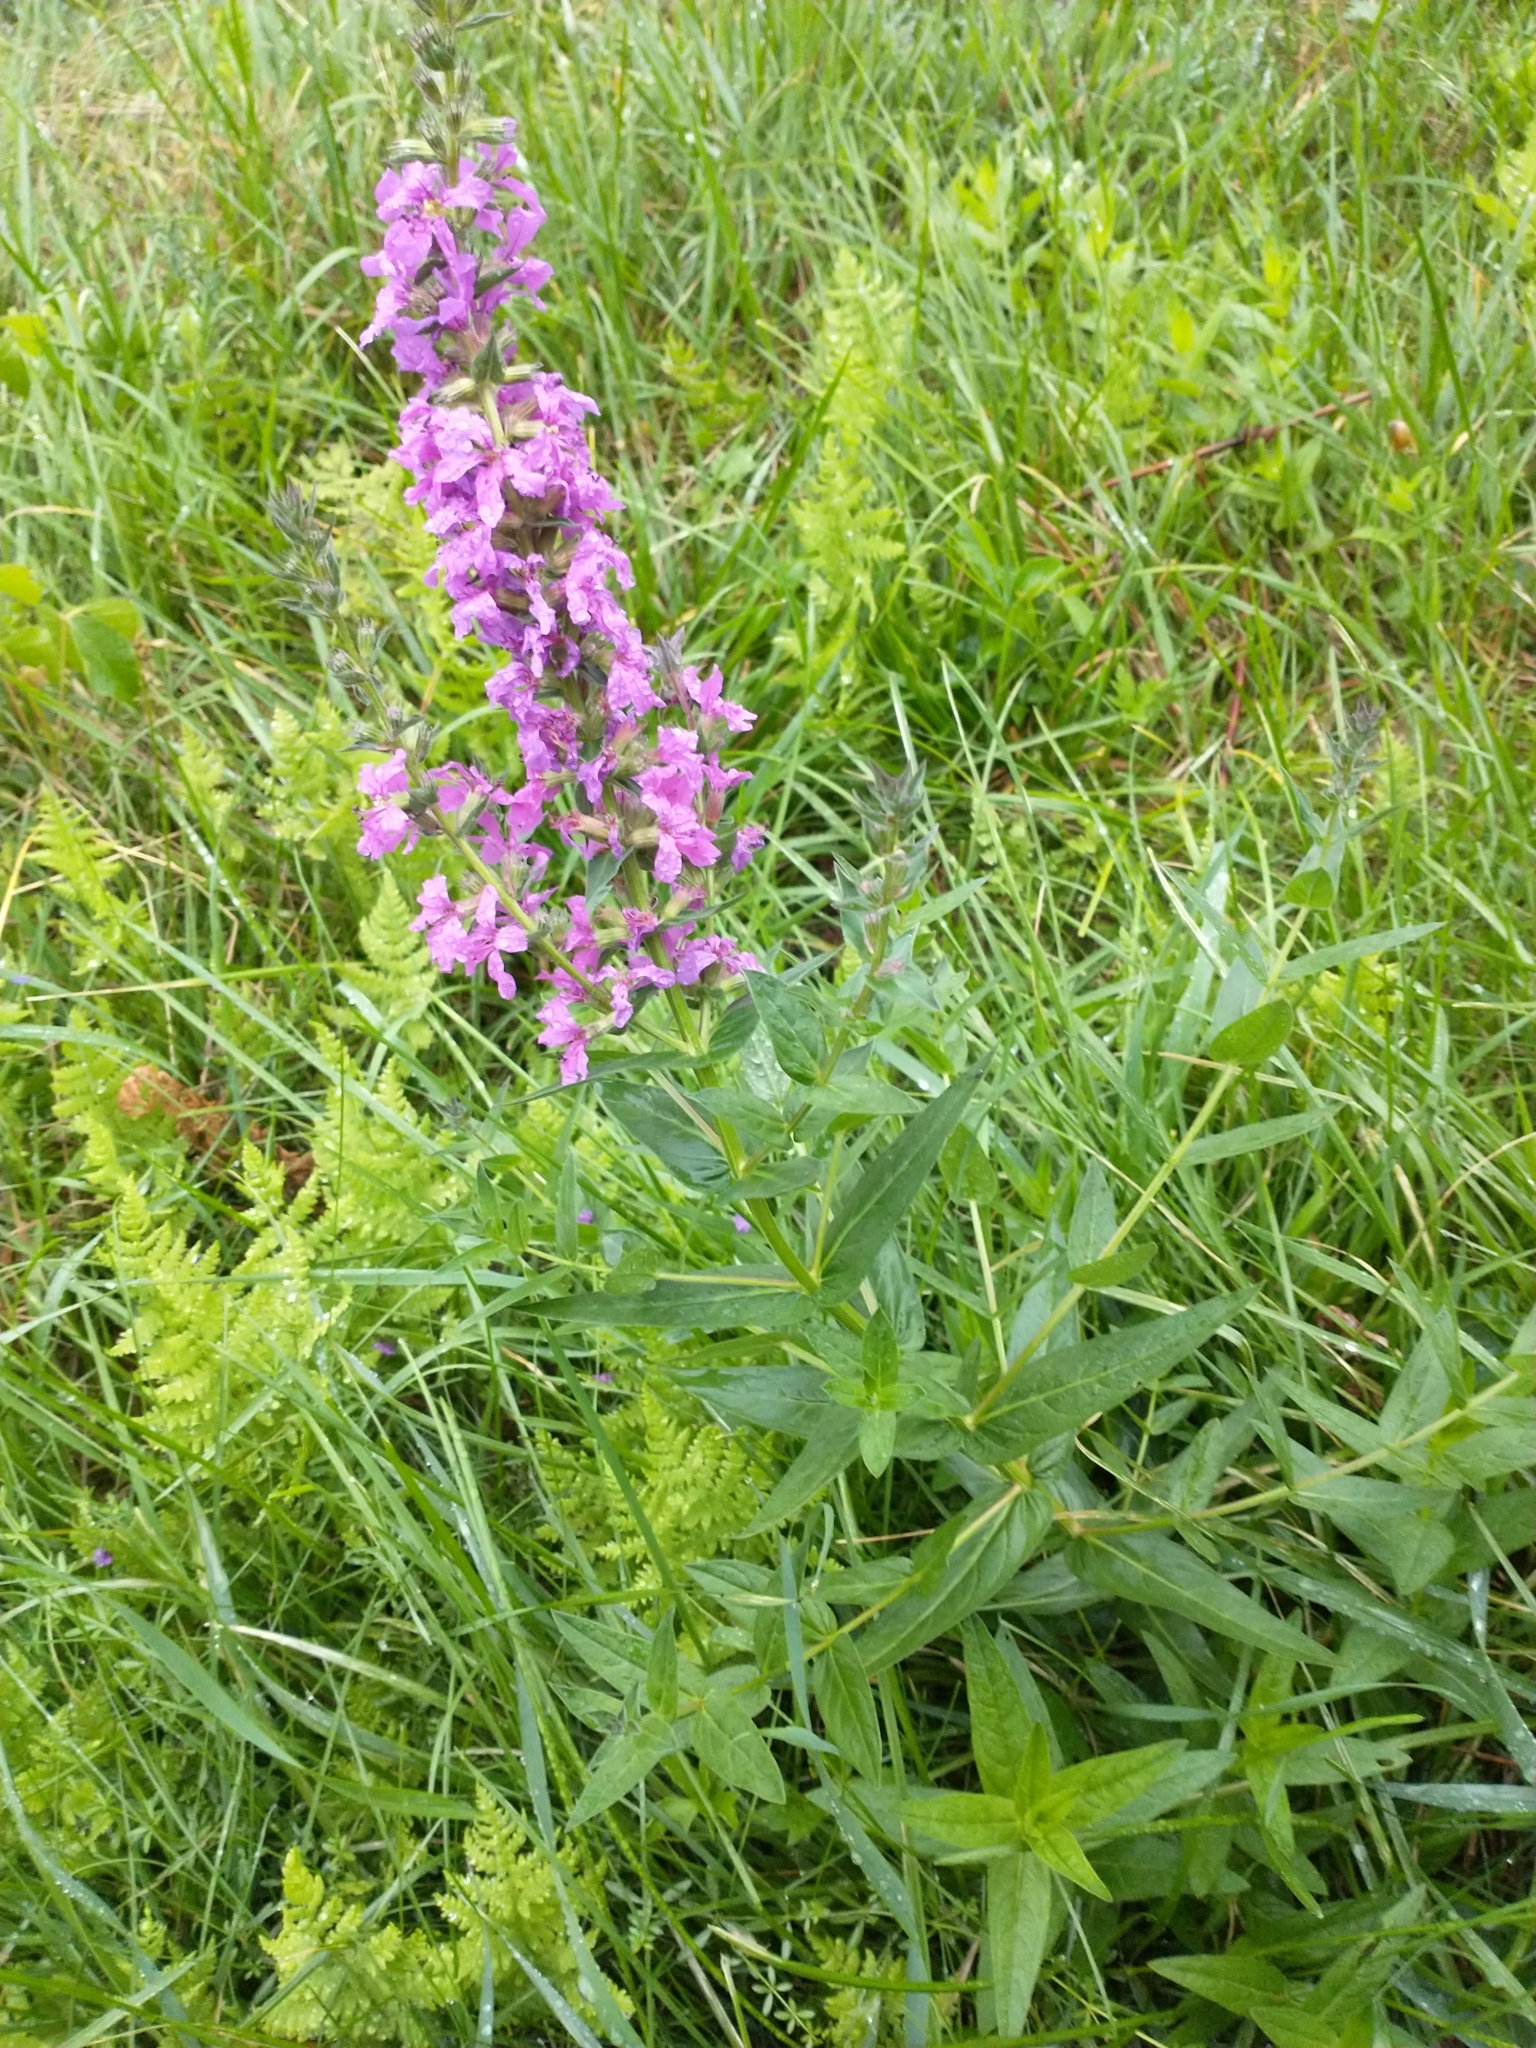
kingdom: Plantae
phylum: Tracheophyta
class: Magnoliopsida
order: Myrtales
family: Lythraceae
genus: Lythrum
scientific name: Lythrum salicaria
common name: Purple loosestrife
